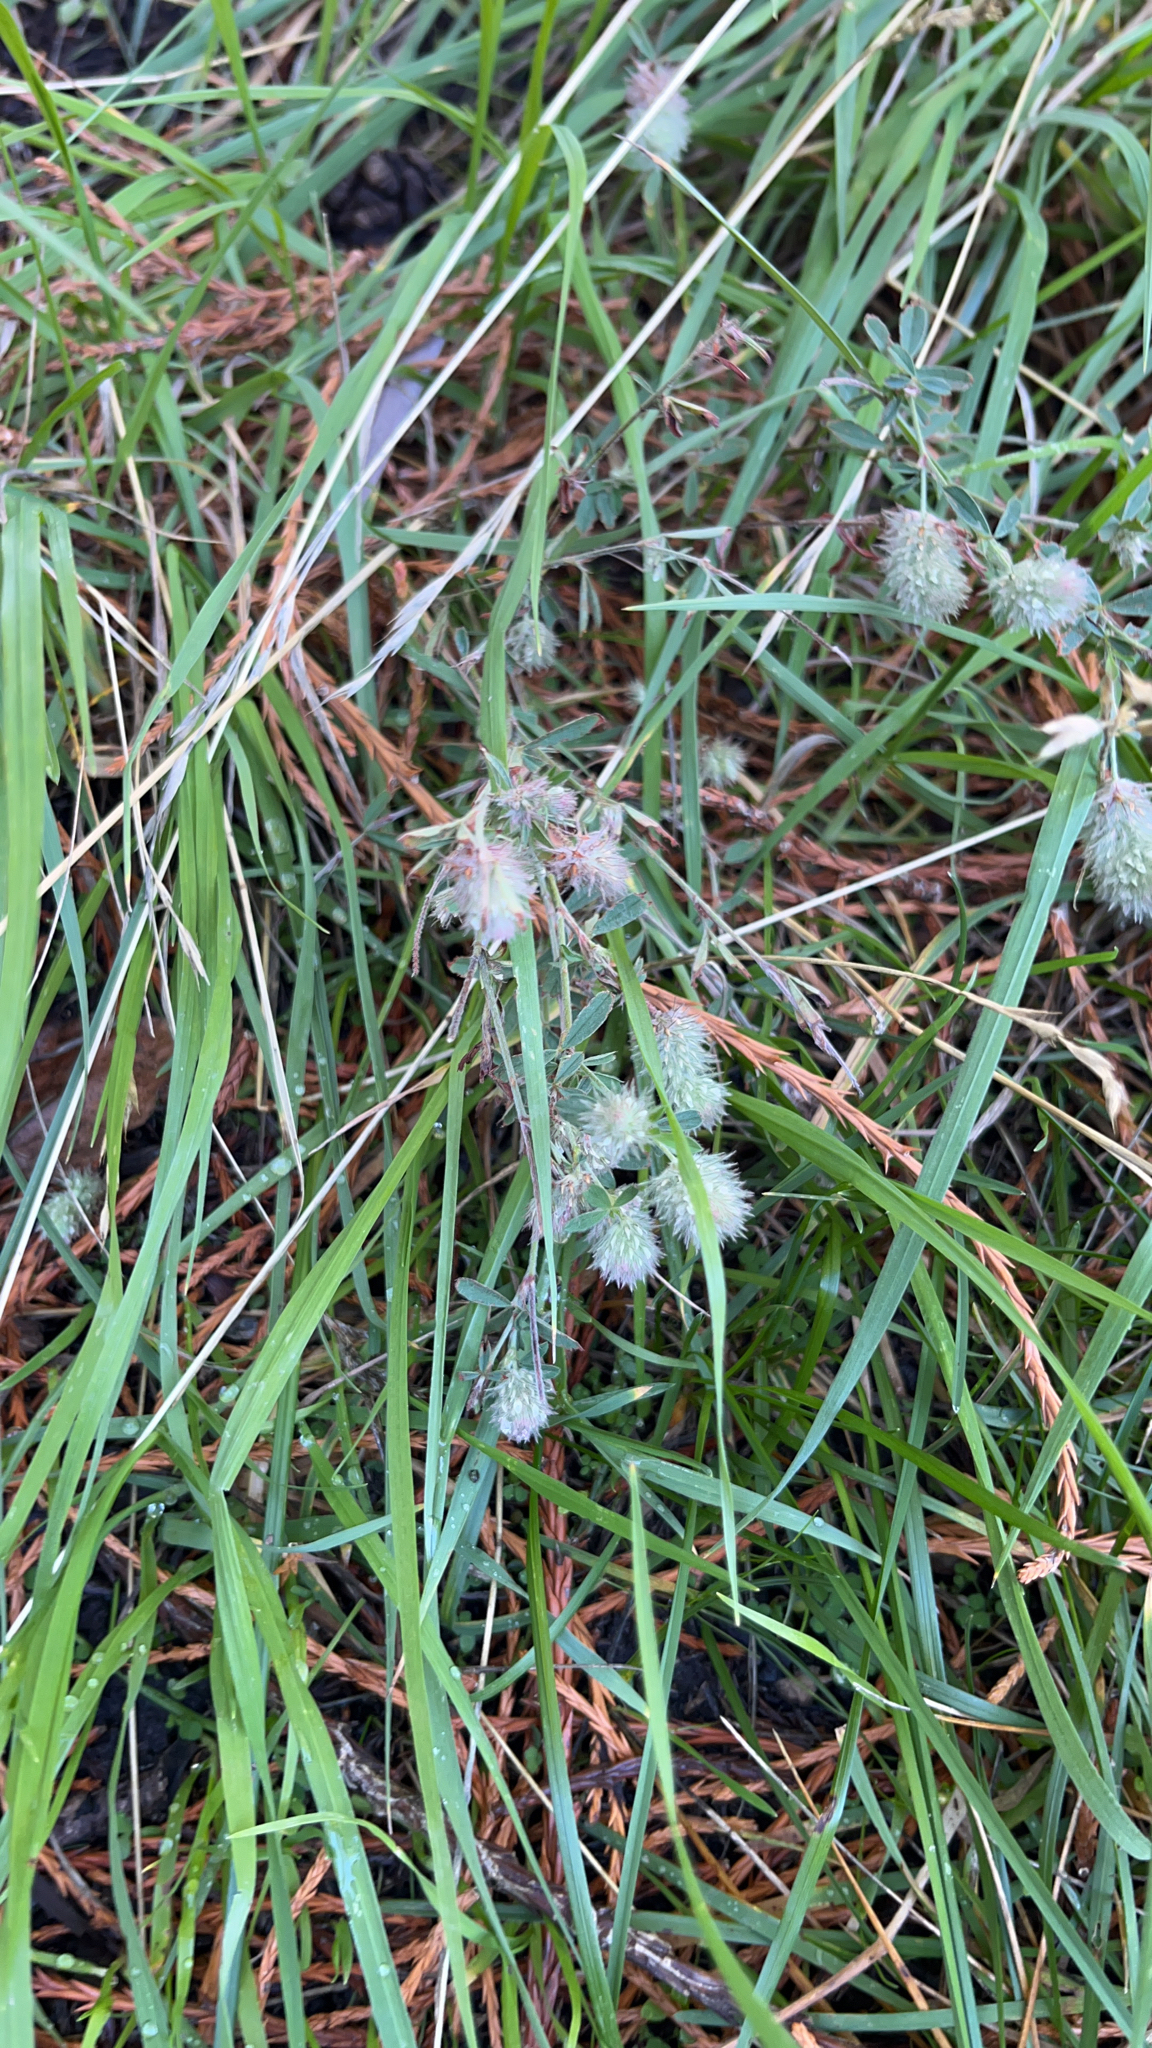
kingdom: Plantae
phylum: Tracheophyta
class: Magnoliopsida
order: Fabales
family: Fabaceae
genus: Trifolium
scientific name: Trifolium arvense
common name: Hare's-foot clover
